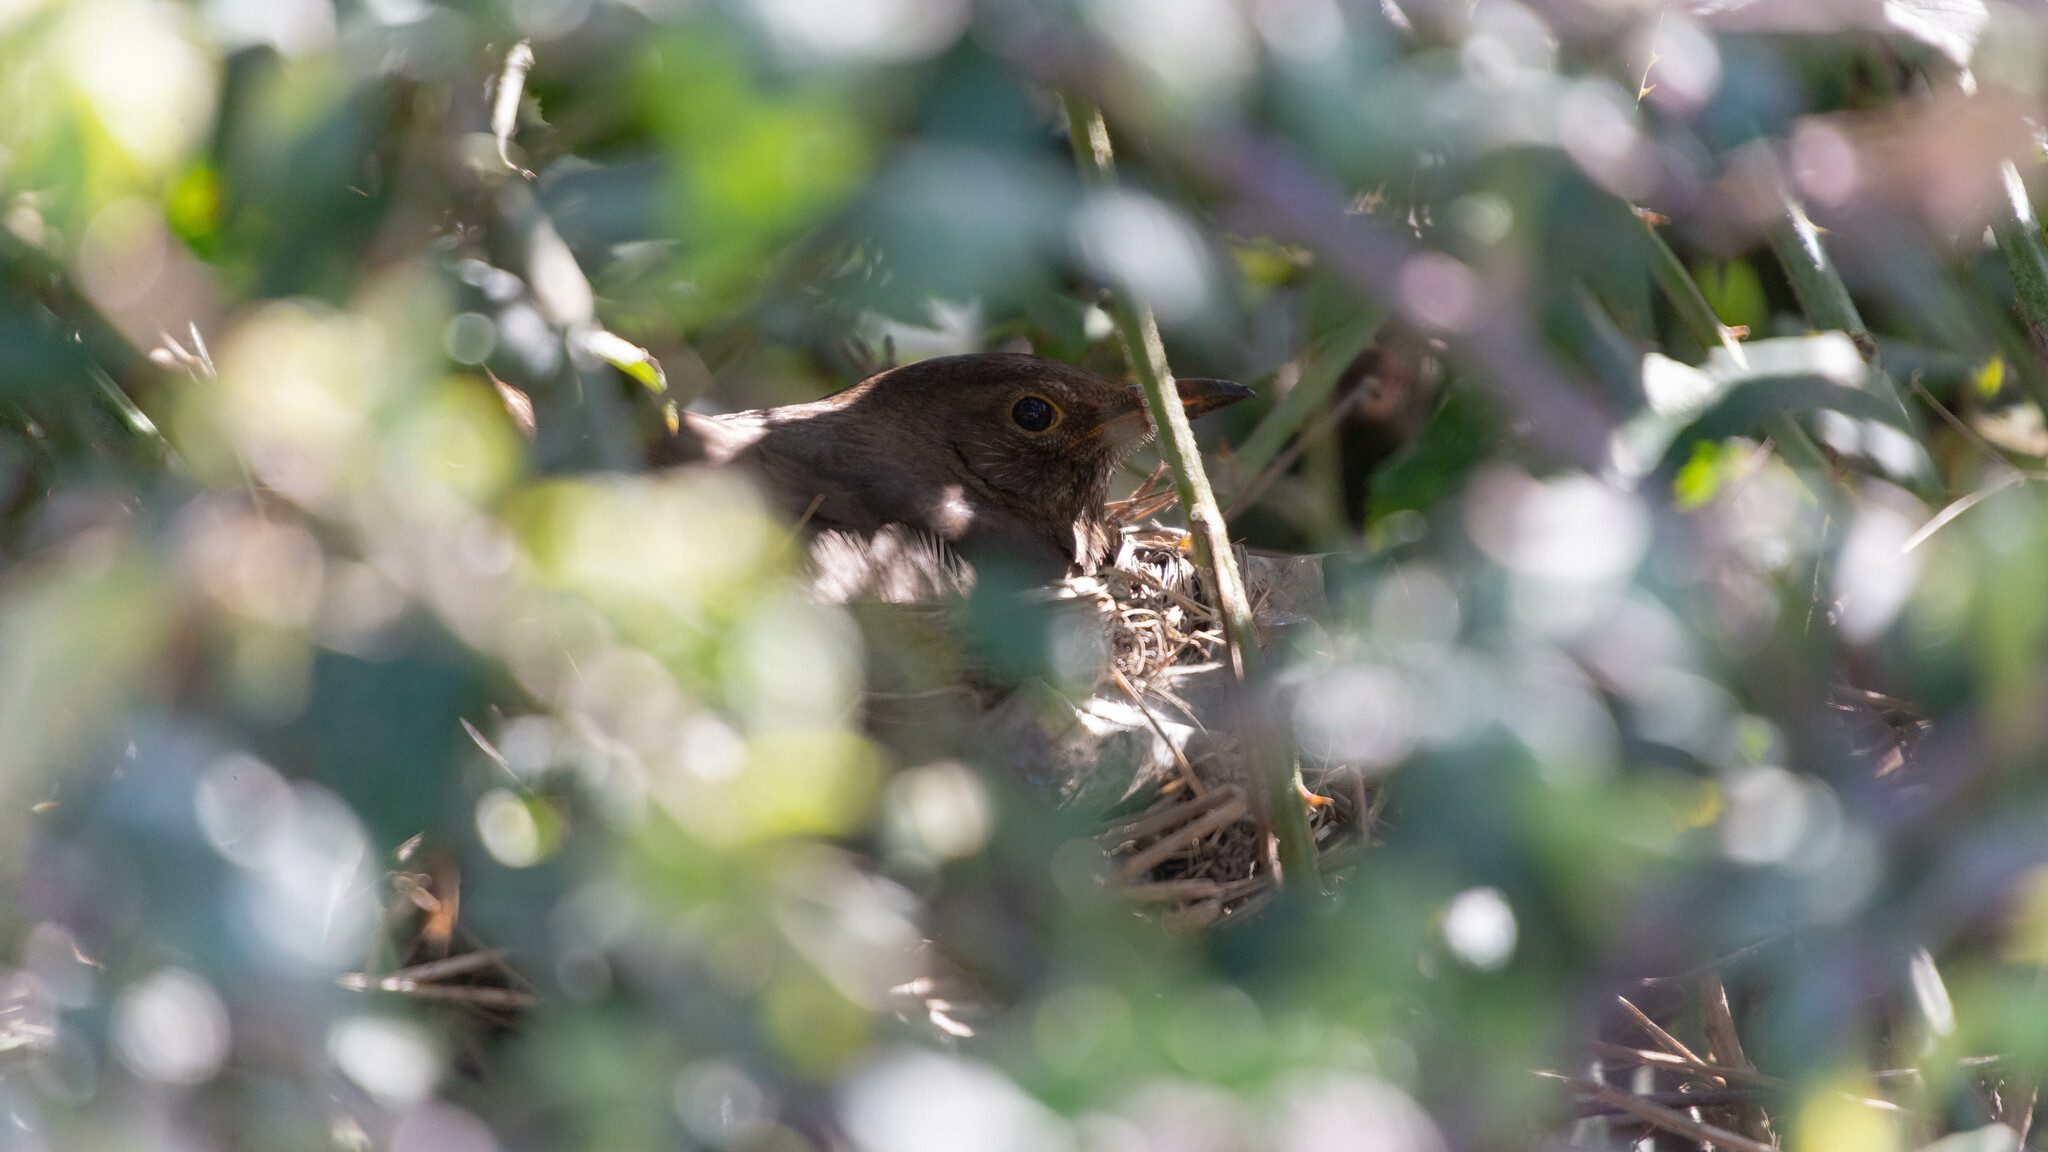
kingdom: Animalia
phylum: Chordata
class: Aves
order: Passeriformes
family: Turdidae
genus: Turdus
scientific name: Turdus merula
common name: Common blackbird
